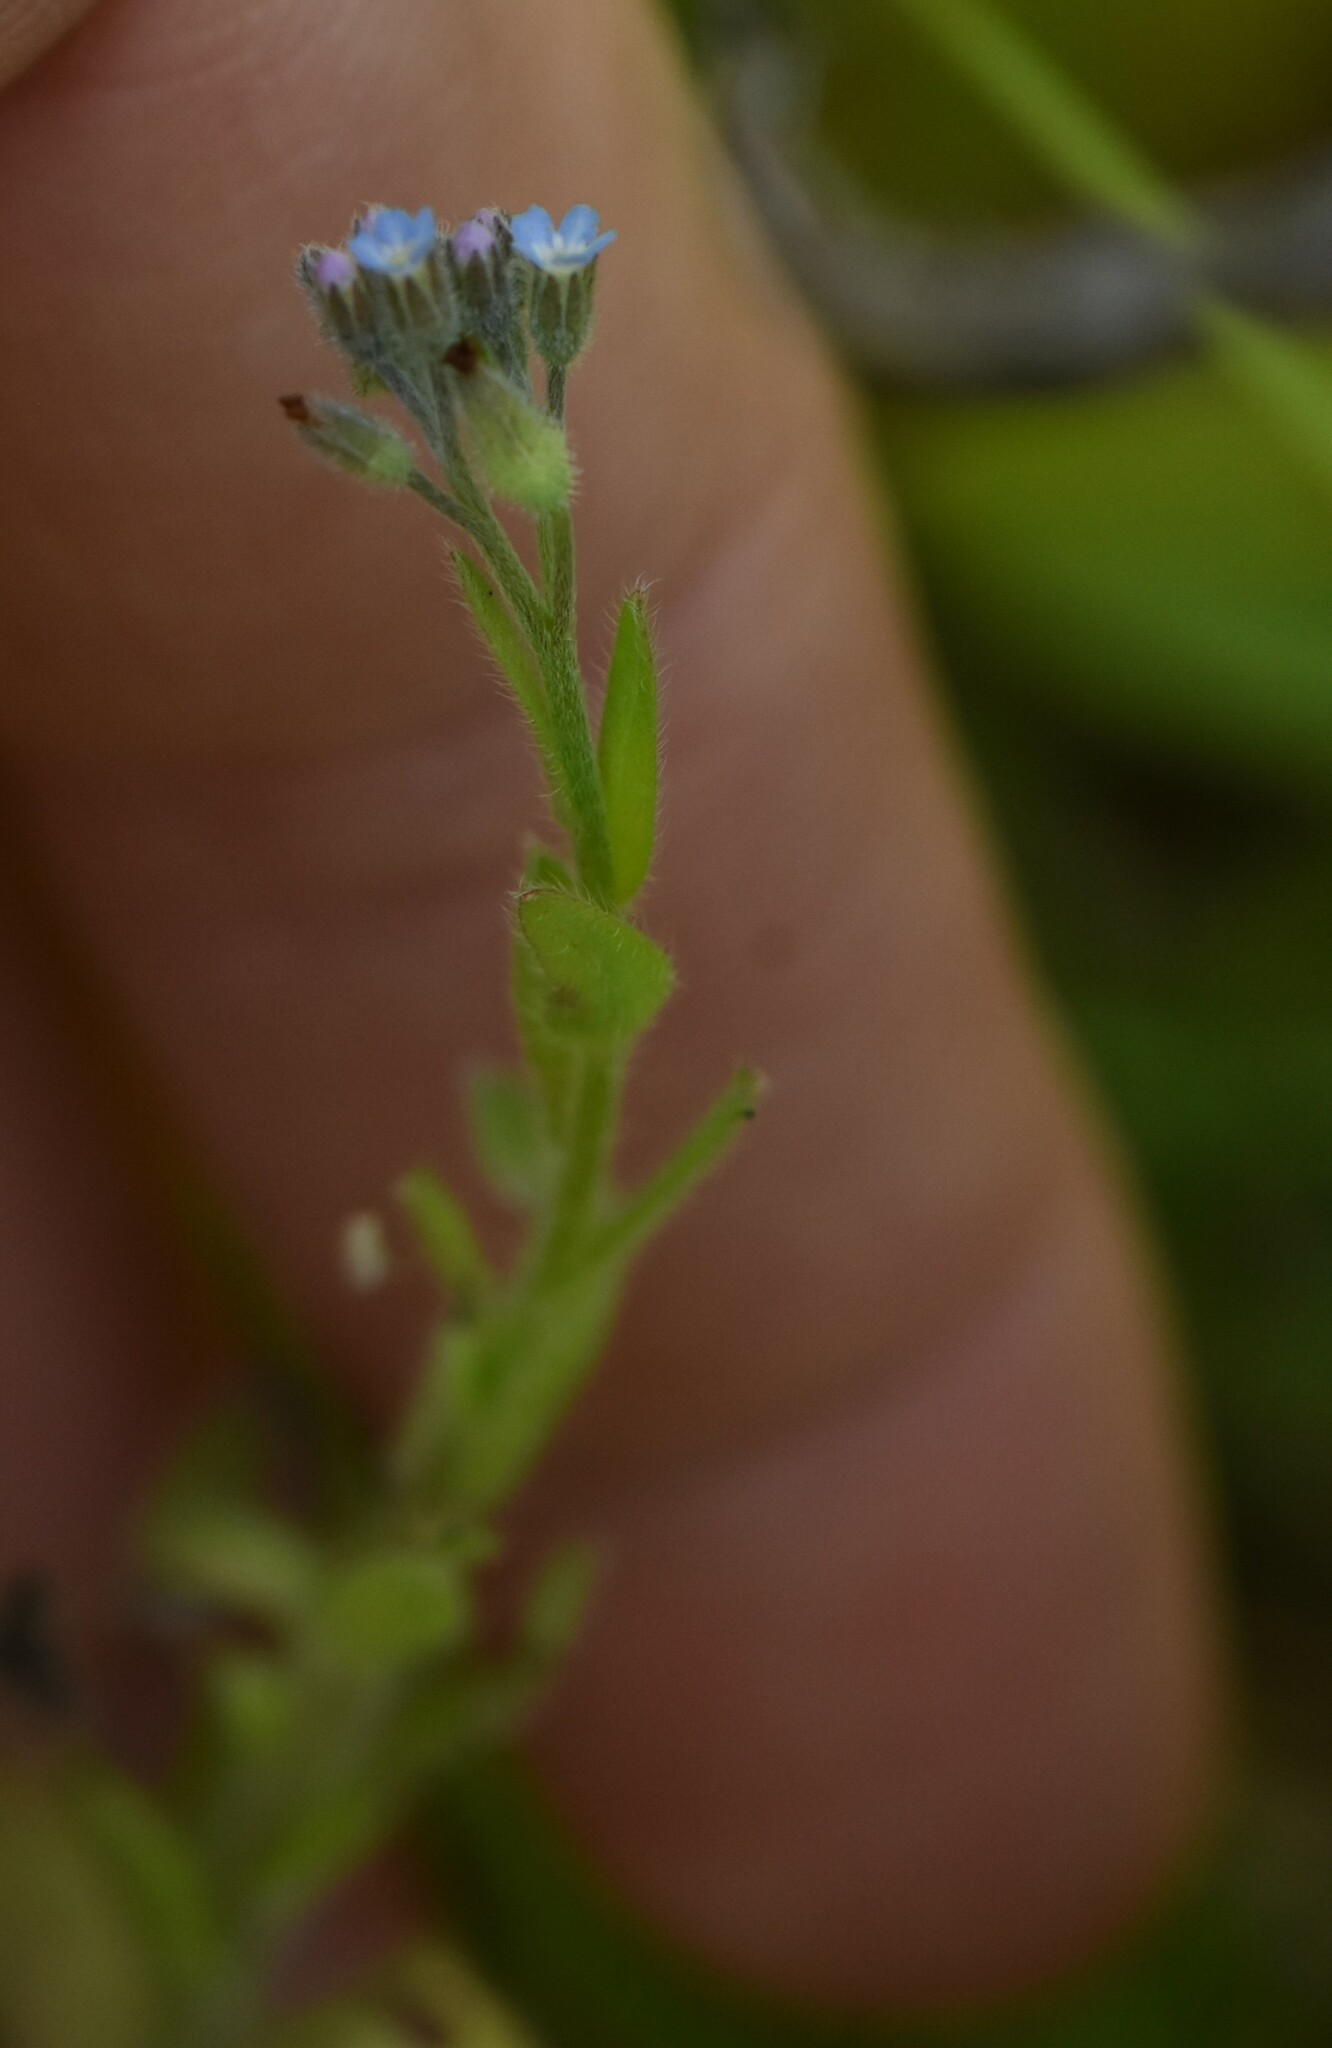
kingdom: Plantae
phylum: Tracheophyta
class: Magnoliopsida
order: Boraginales
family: Boraginaceae
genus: Myosotis
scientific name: Myosotis arvensis
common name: Field forget-me-not
